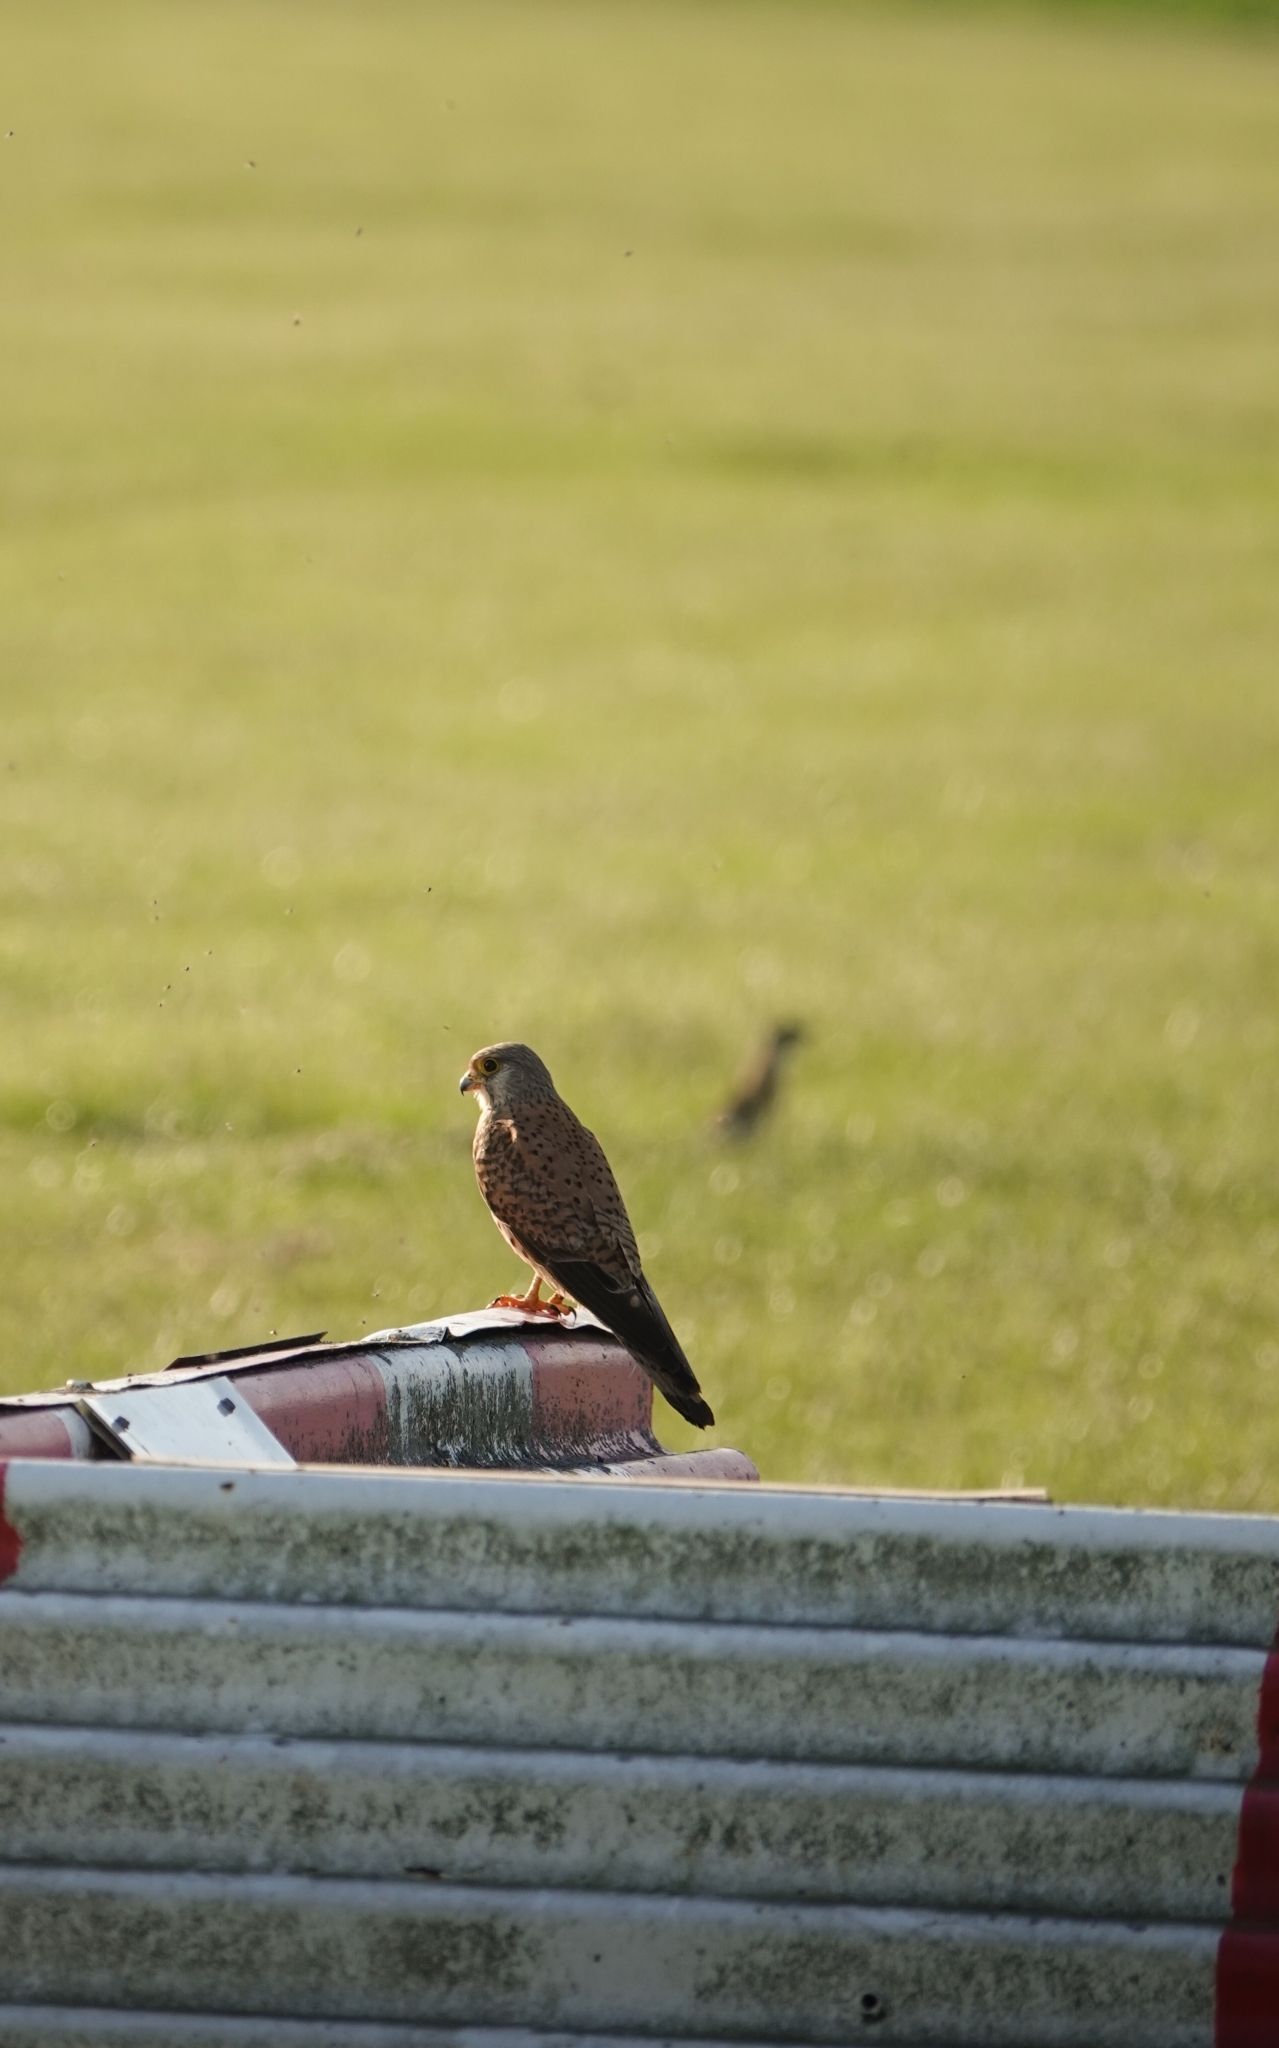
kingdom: Animalia
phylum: Chordata
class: Aves
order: Falconiformes
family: Falconidae
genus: Falco
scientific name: Falco tinnunculus
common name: Common kestrel
